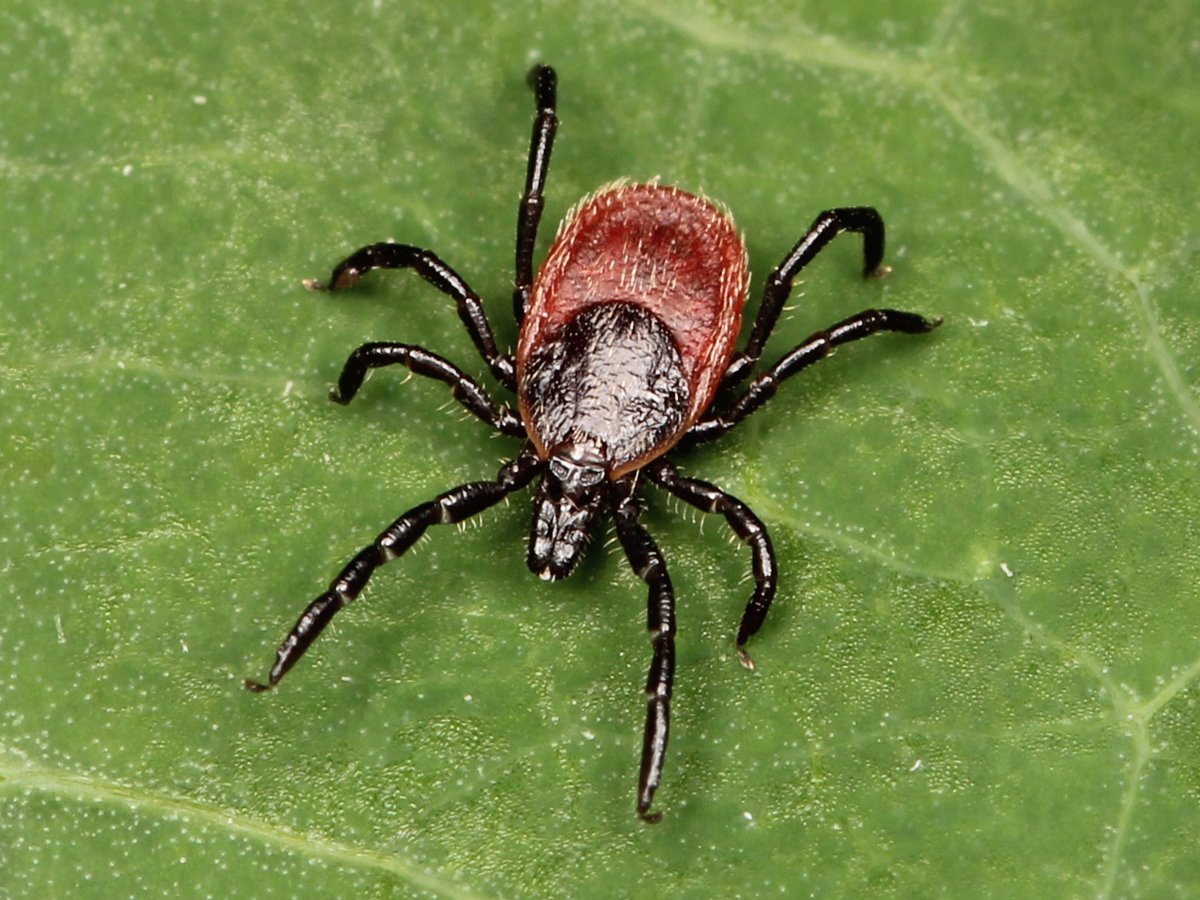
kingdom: Animalia
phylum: Arthropoda
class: Arachnida
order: Ixodida
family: Ixodidae
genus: Ixodes
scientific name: Ixodes pacificus
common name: California black-legged tick
